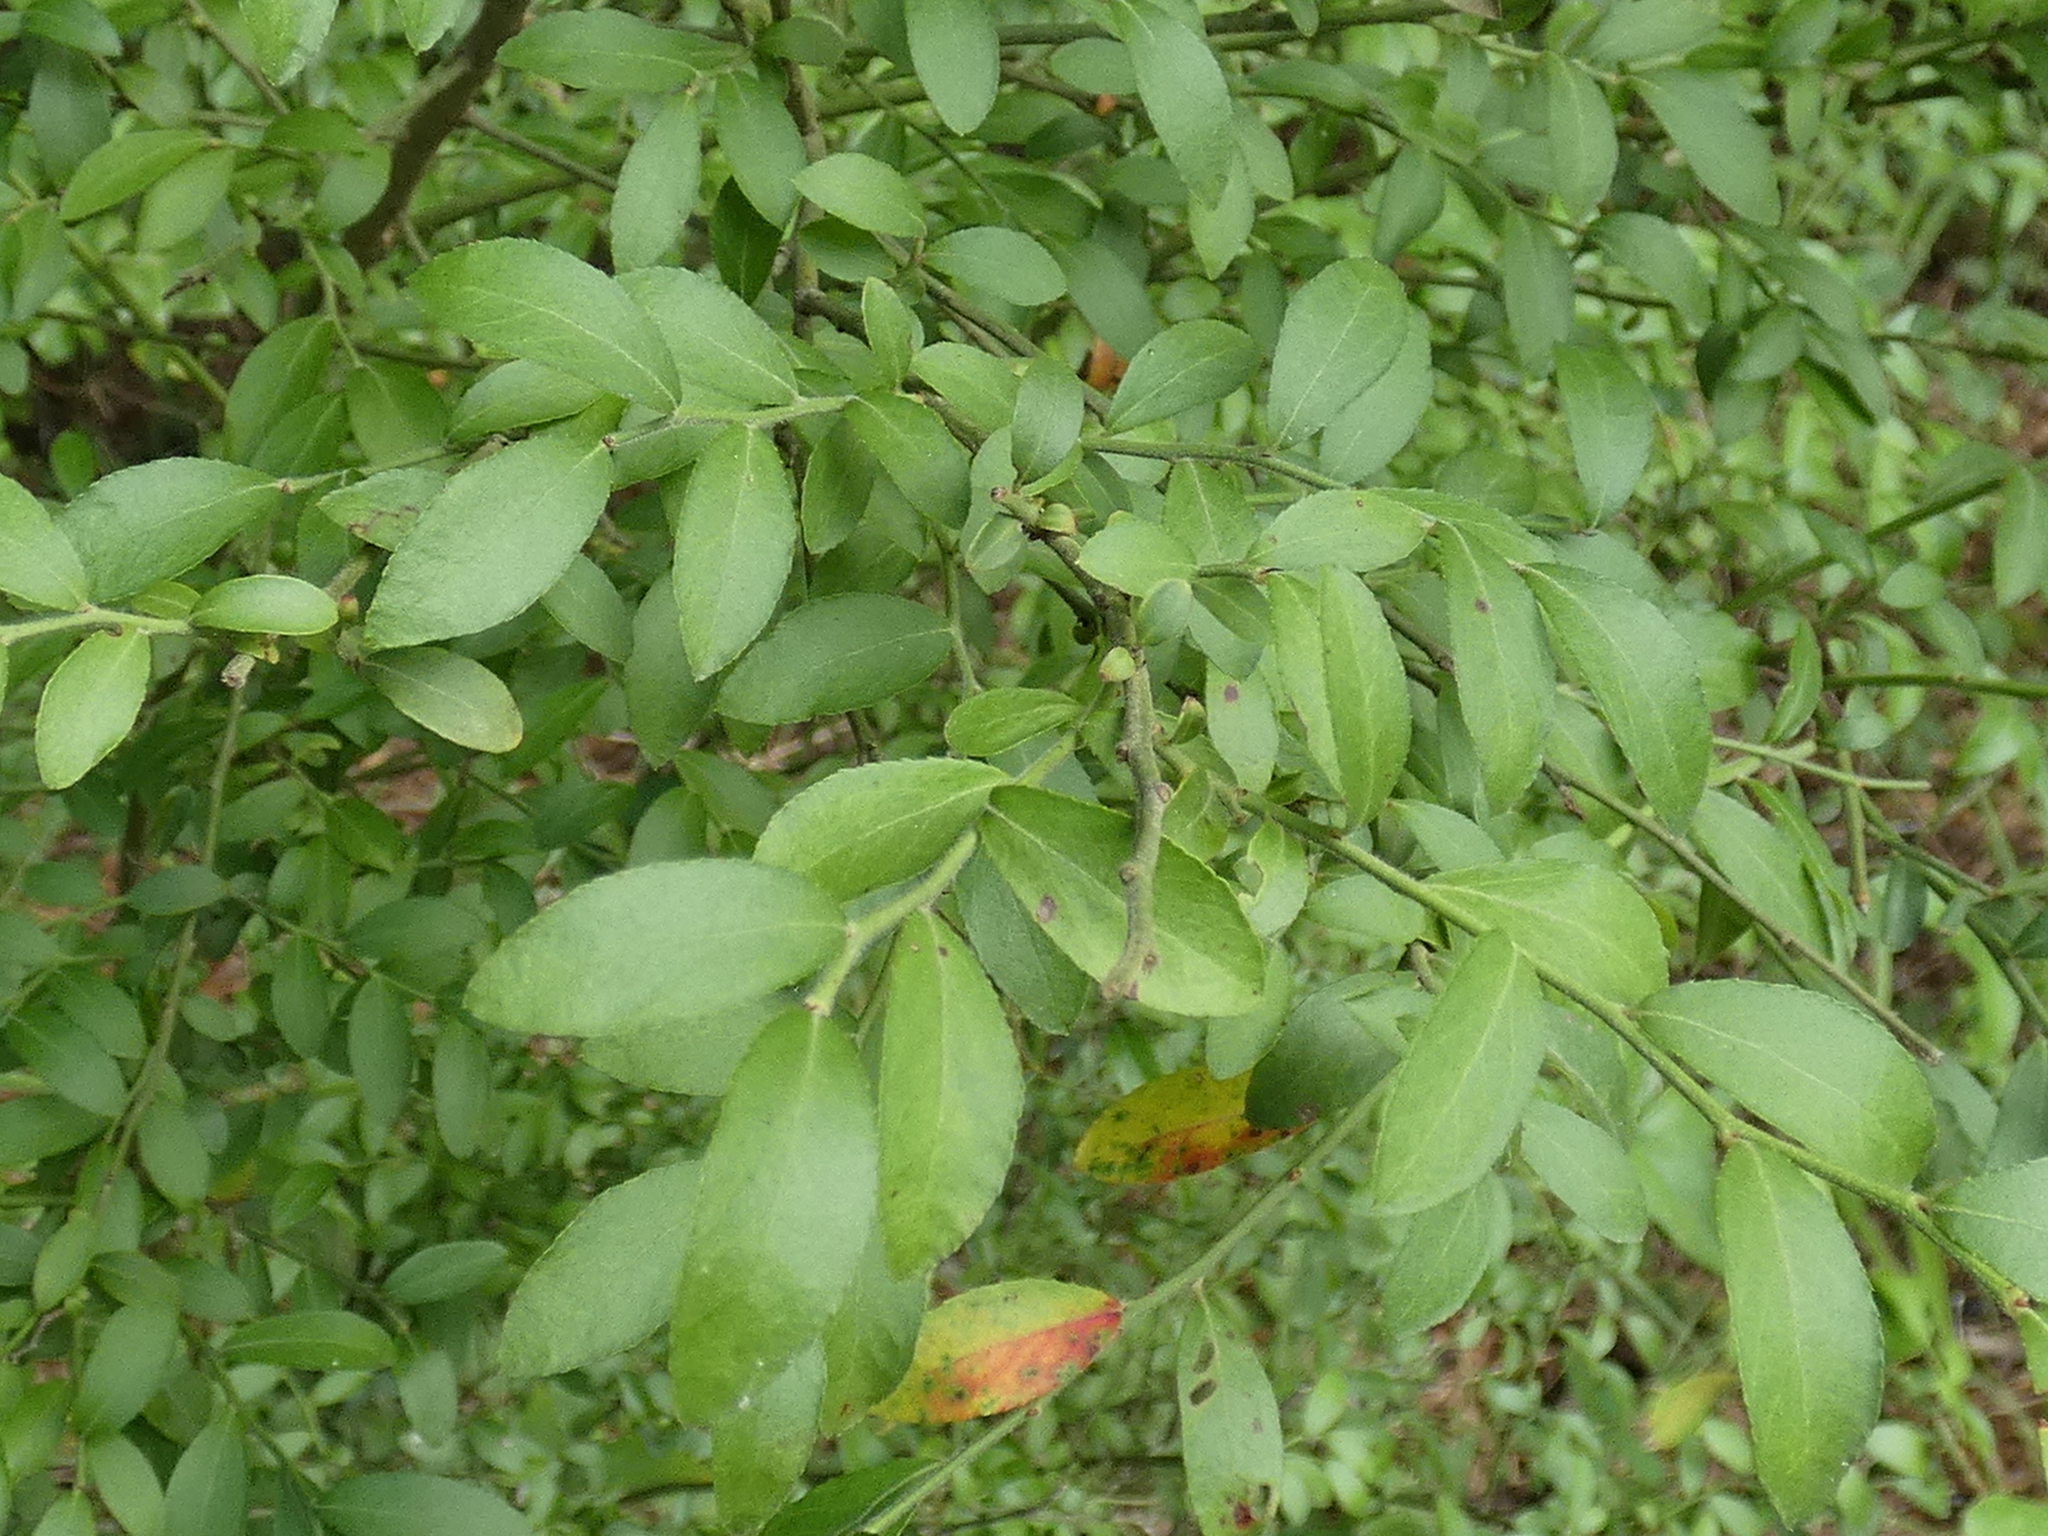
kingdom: Plantae
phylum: Tracheophyta
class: Magnoliopsida
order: Ericales
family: Ericaceae
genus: Vaccinium
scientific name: Vaccinium corymbosum
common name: Blueberry
